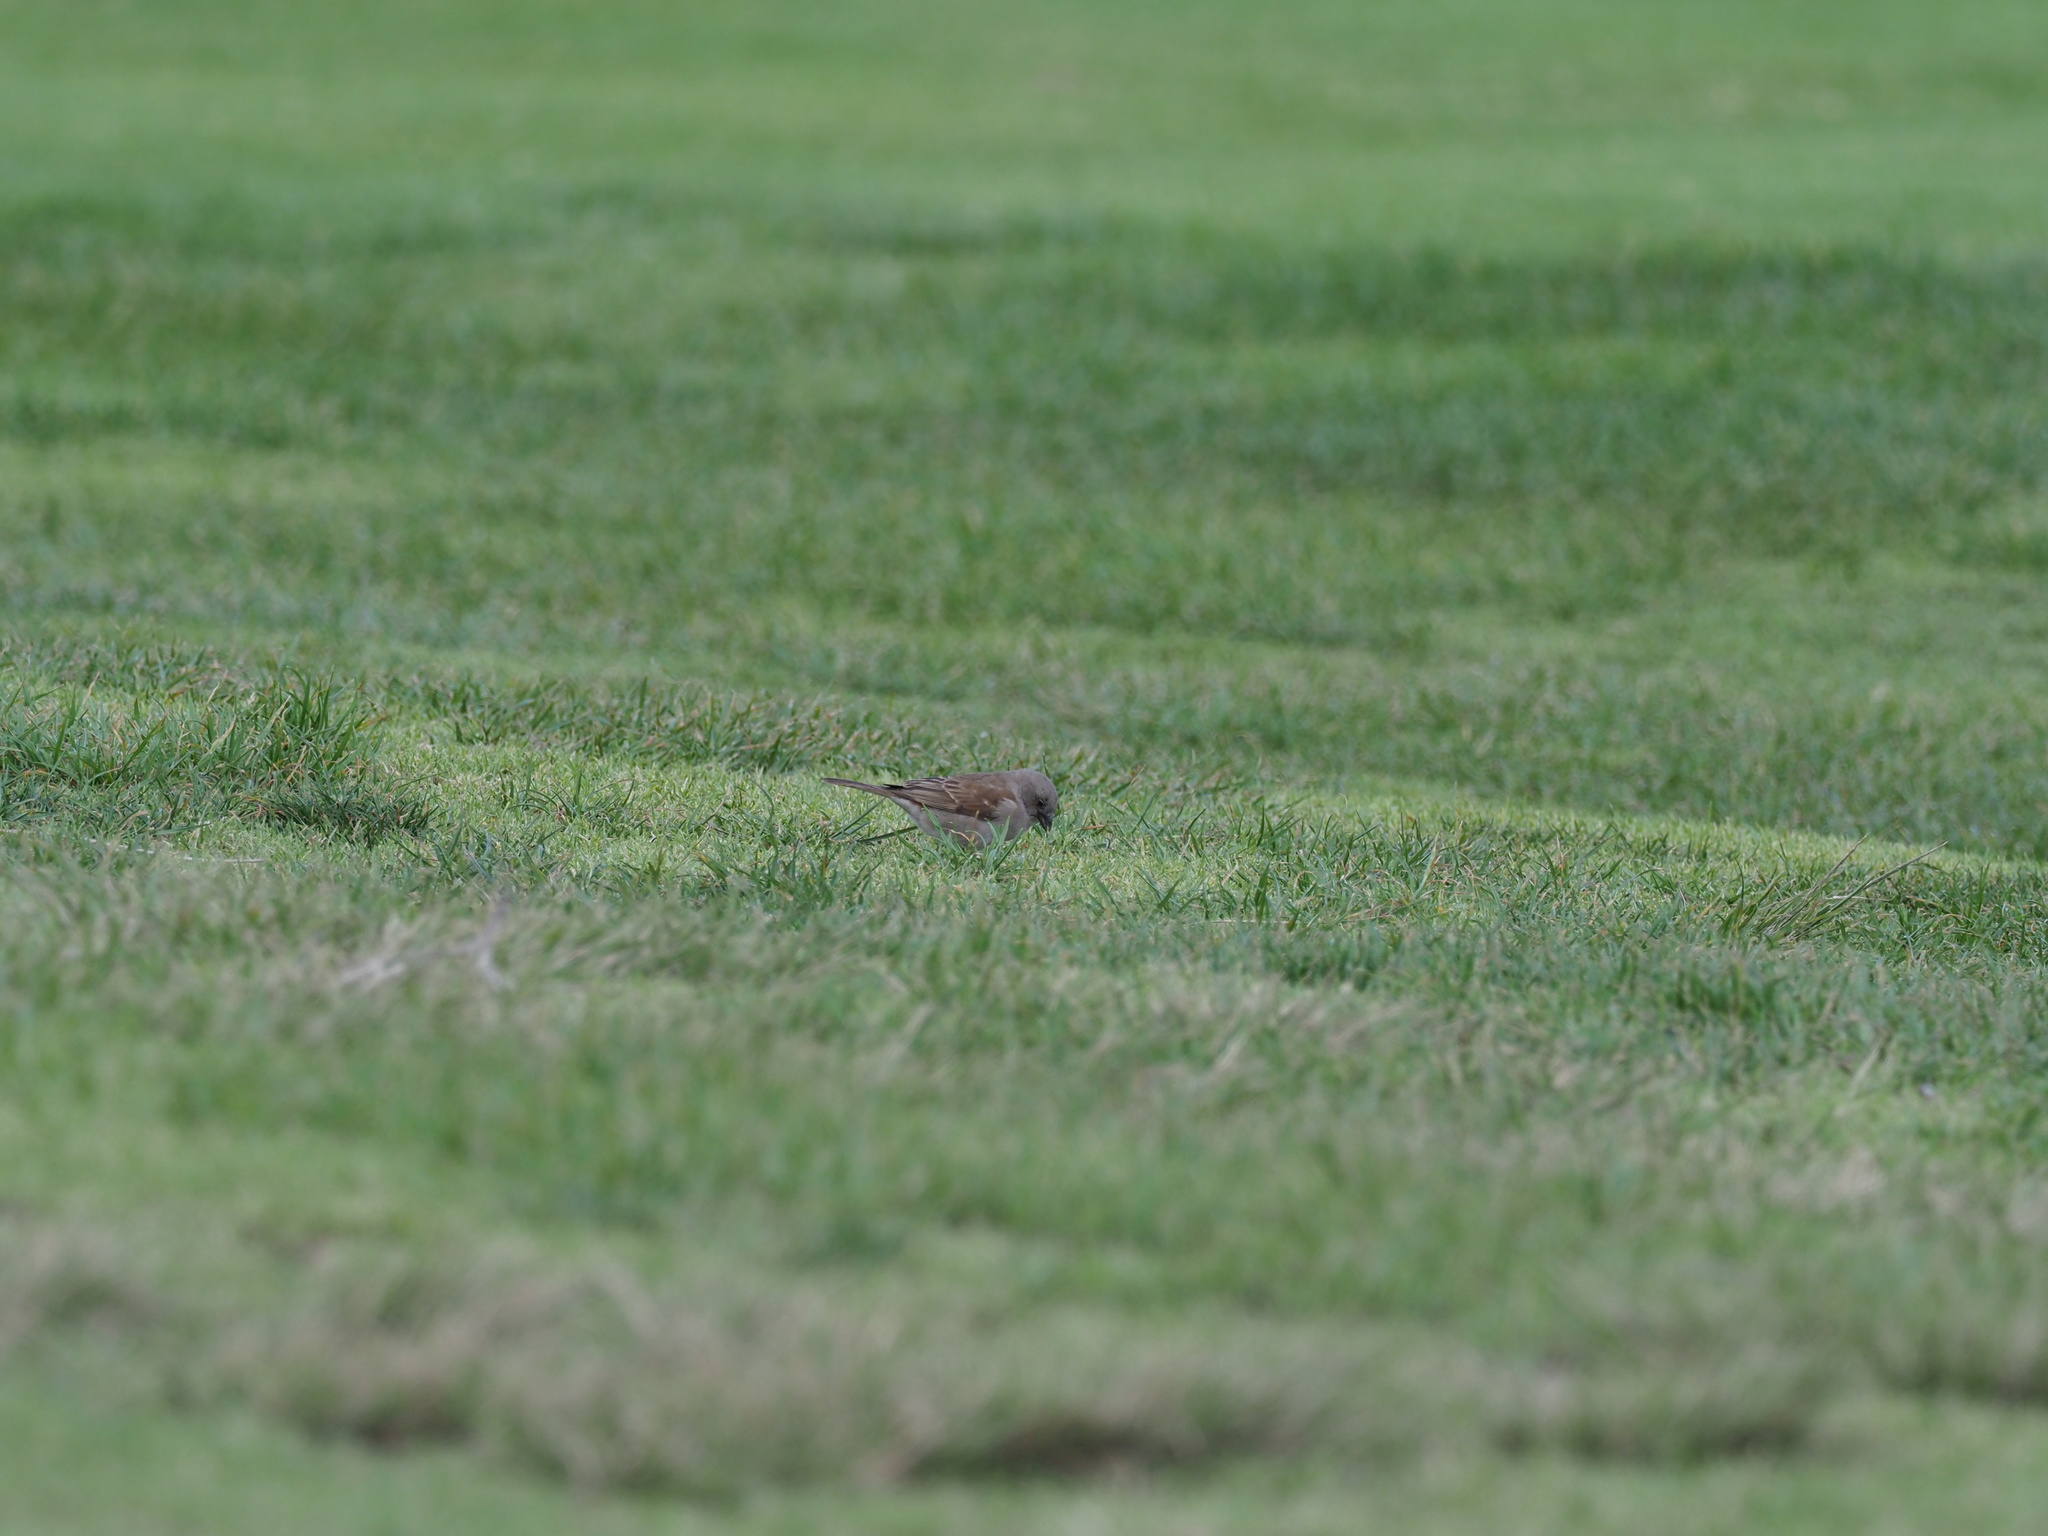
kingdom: Animalia
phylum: Chordata
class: Aves
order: Passeriformes
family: Passeridae
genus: Passer
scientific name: Passer diffusus
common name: Southern grey-headed sparrow
